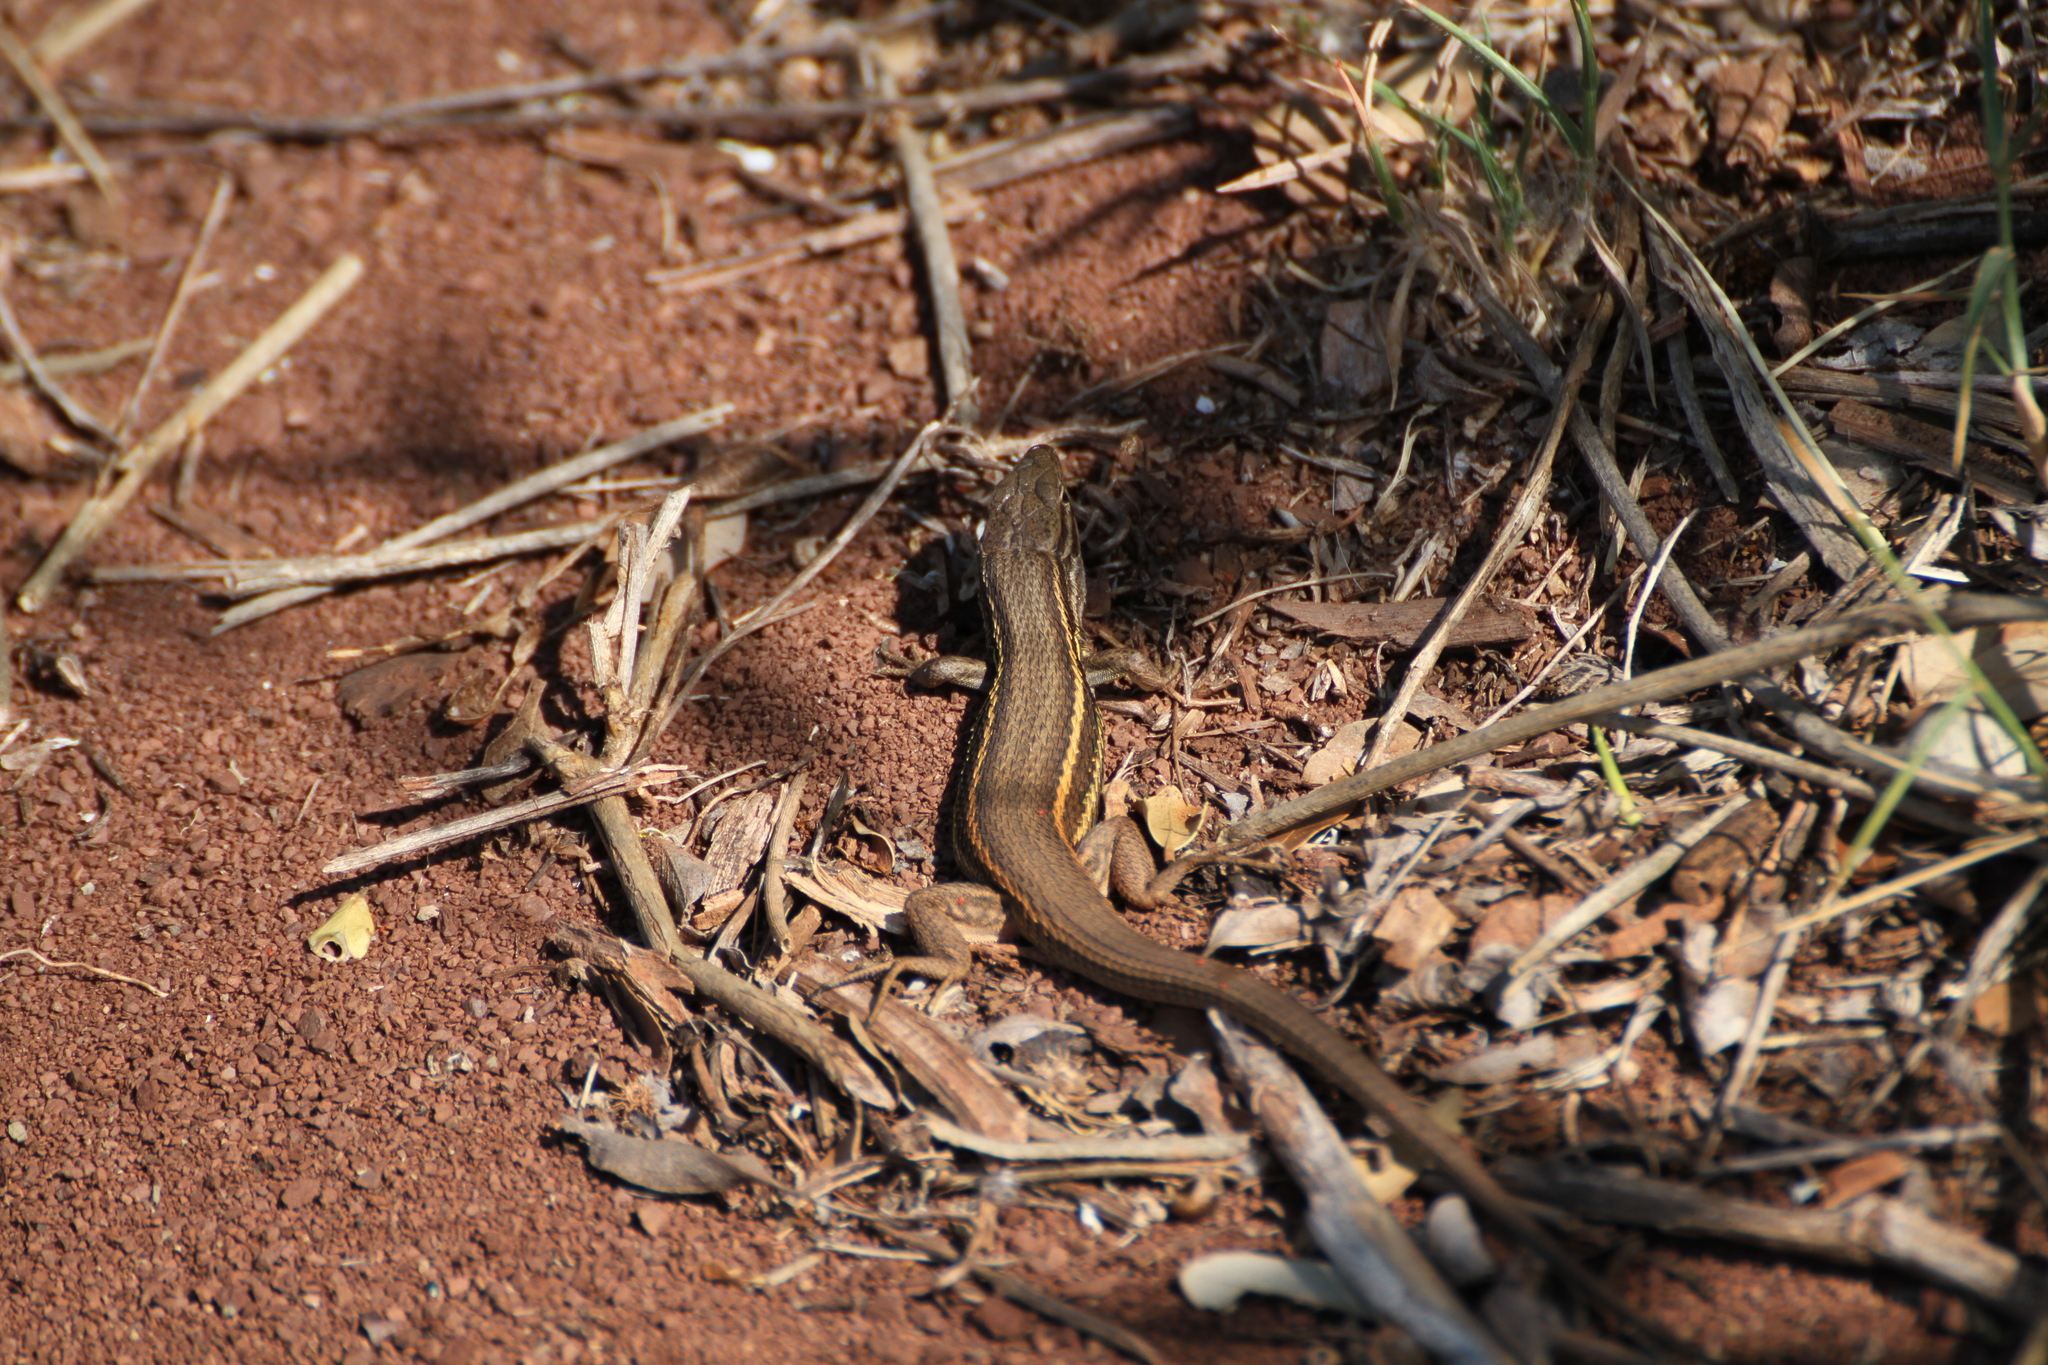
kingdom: Animalia
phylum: Chordata
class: Squamata
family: Lacertidae
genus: Psammodromus
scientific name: Psammodromus algirus
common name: Algerian psammodromus
